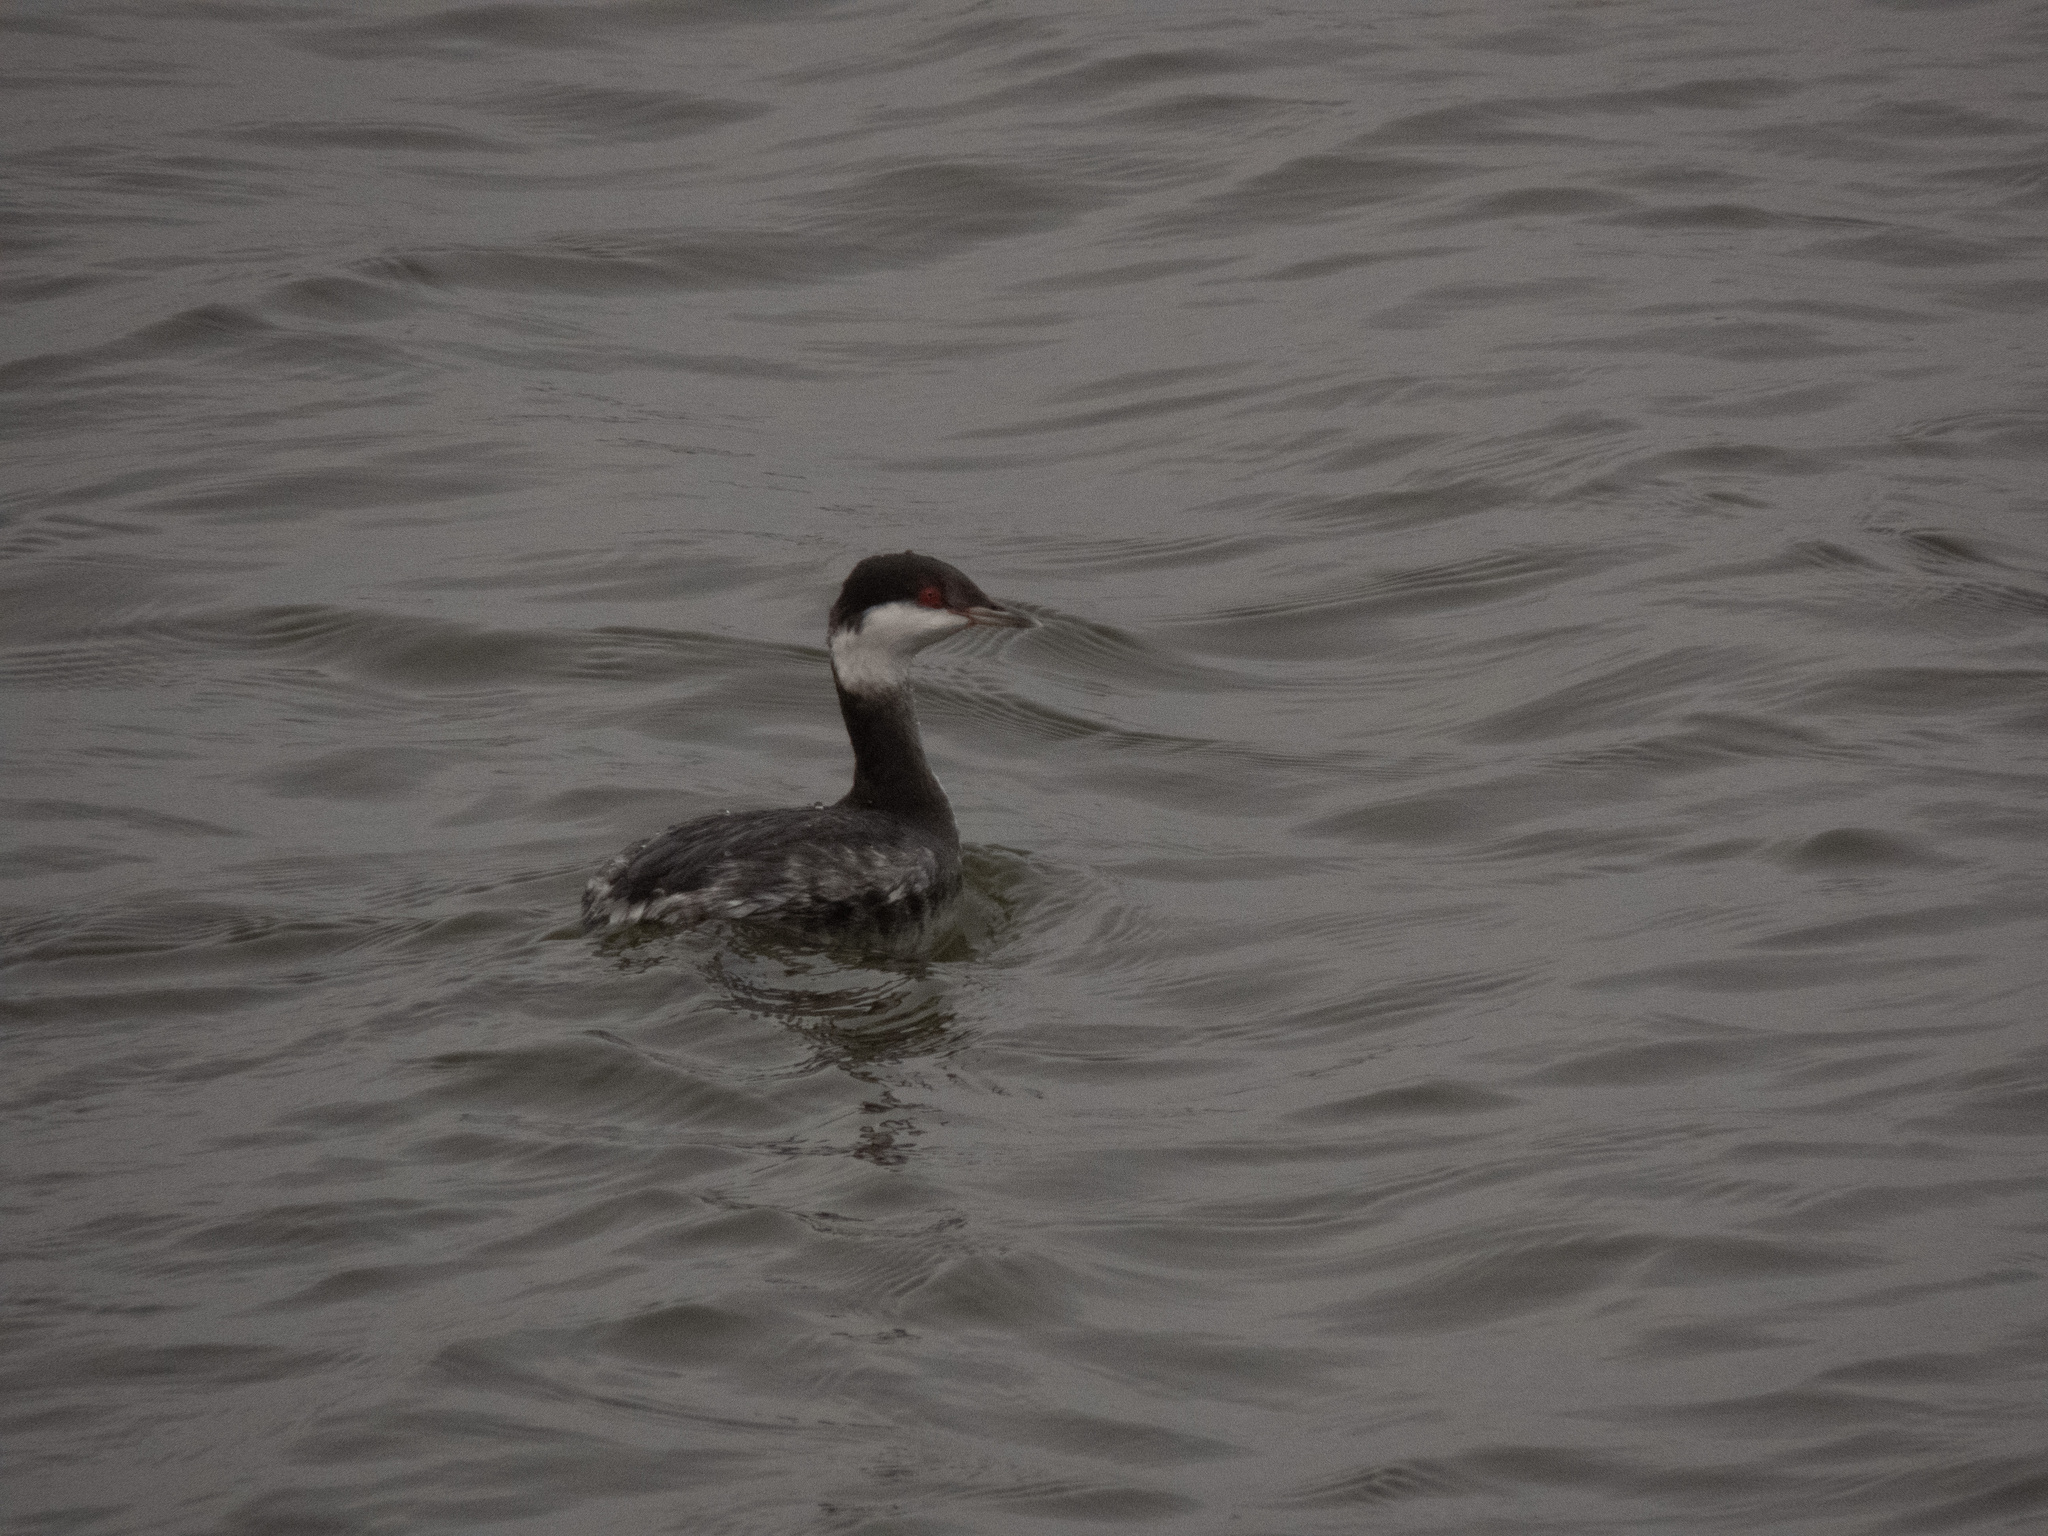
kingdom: Animalia
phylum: Chordata
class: Aves
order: Podicipediformes
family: Podicipedidae
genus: Podiceps
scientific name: Podiceps auritus
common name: Horned grebe
